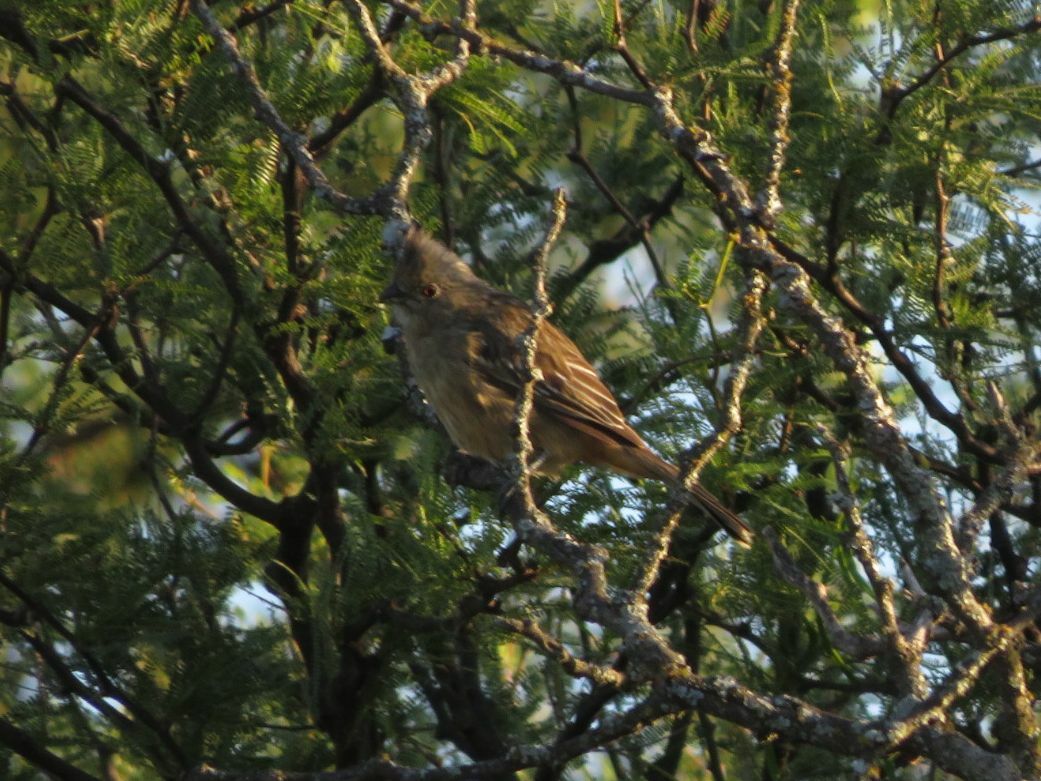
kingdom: Animalia
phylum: Chordata
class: Aves
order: Passeriformes
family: Cotingidae
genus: Phytotoma
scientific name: Phytotoma rutila
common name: White-tipped plantcutter
